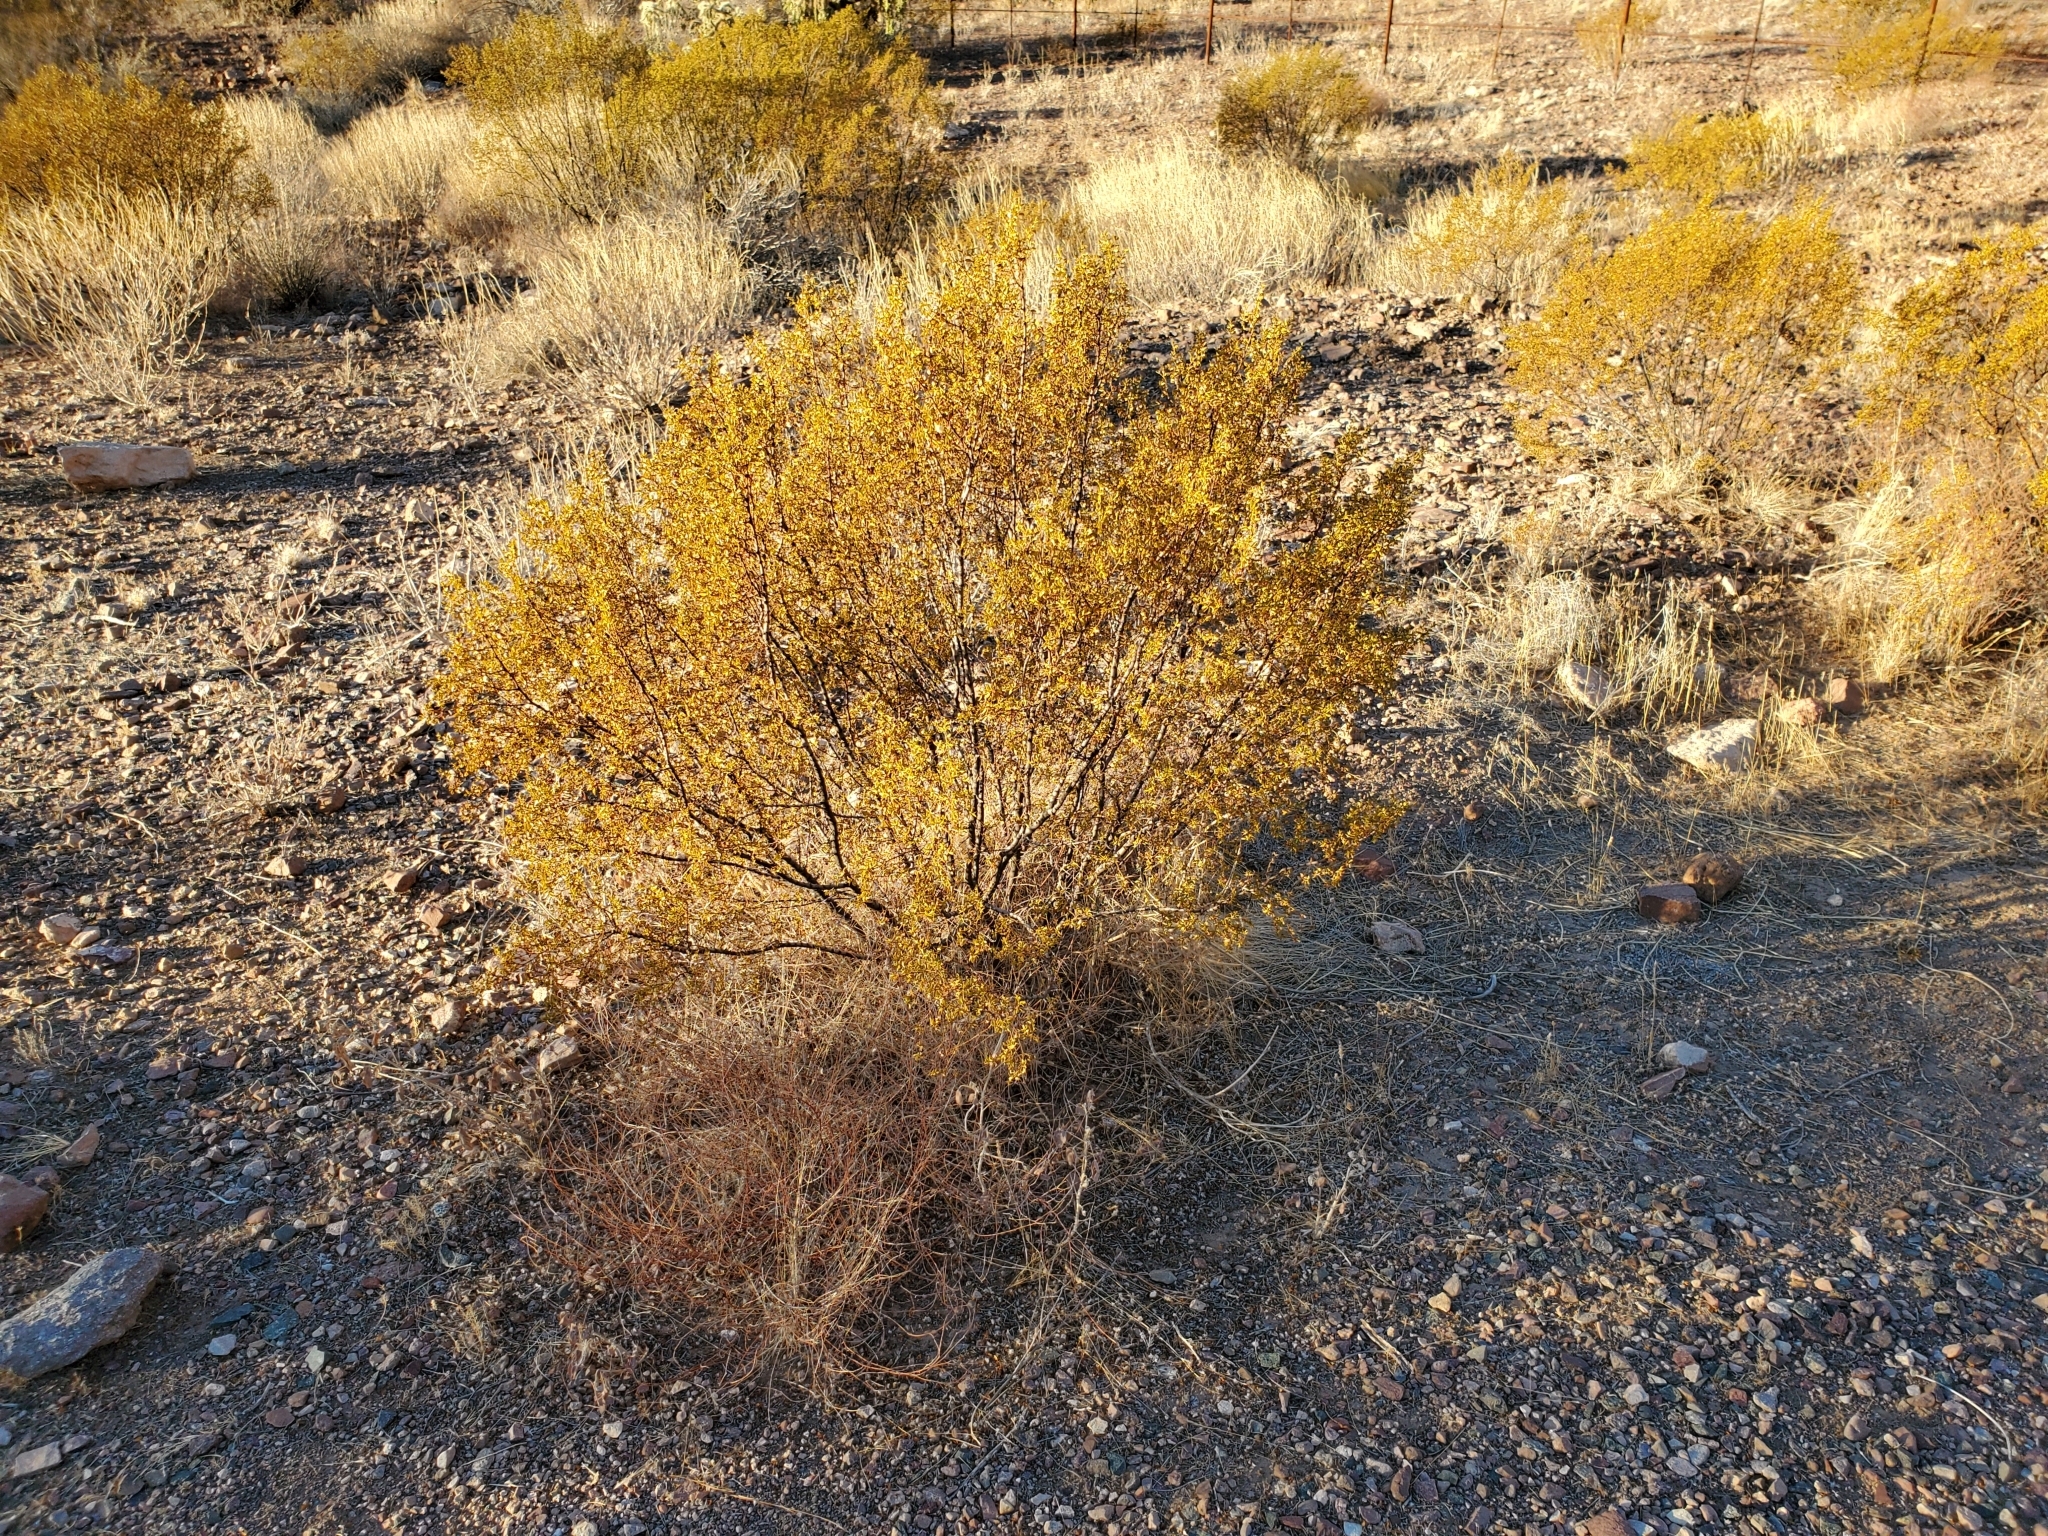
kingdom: Plantae
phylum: Tracheophyta
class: Magnoliopsida
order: Zygophyllales
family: Zygophyllaceae
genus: Larrea
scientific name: Larrea tridentata
